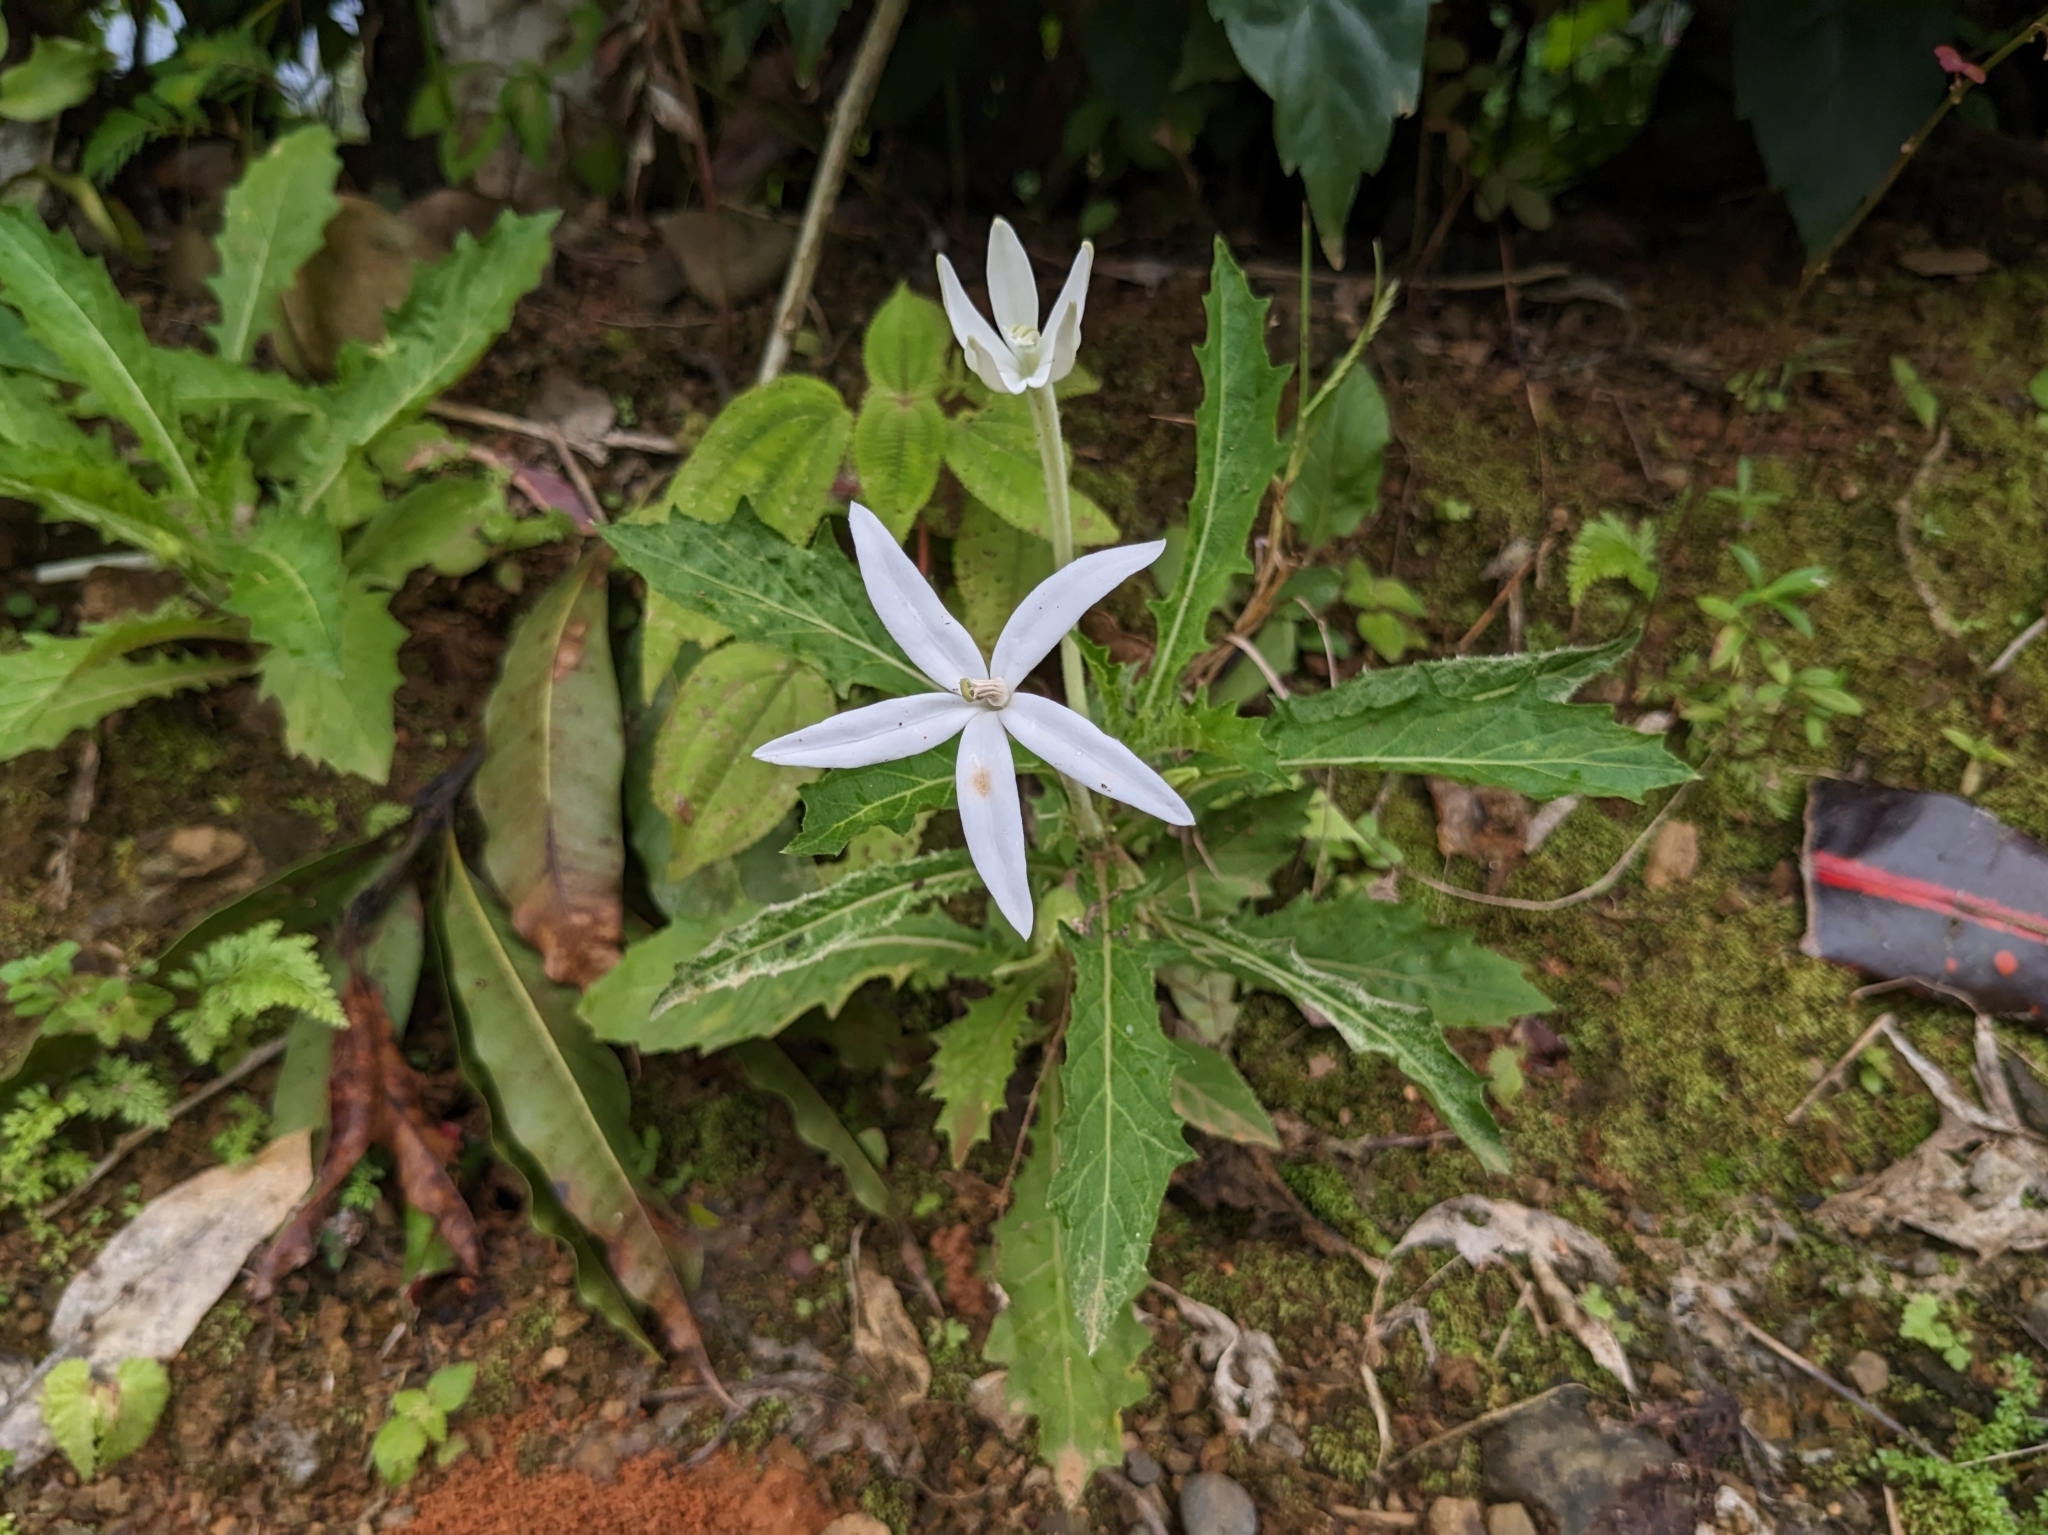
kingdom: Plantae
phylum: Tracheophyta
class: Magnoliopsida
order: Asterales
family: Campanulaceae
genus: Hippobroma
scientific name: Hippobroma longiflora
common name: Madamfate
